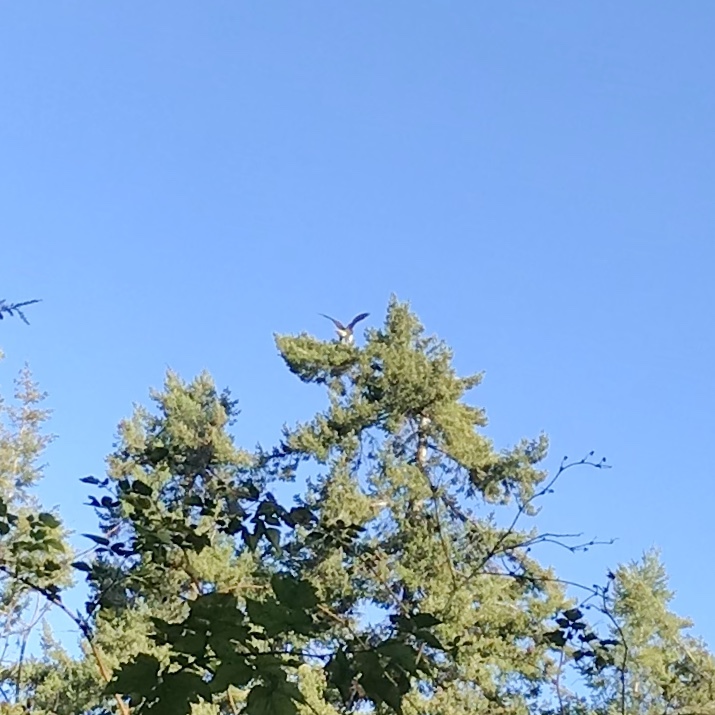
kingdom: Animalia
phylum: Chordata
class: Aves
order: Accipitriformes
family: Accipitridae
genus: Haliaeetus
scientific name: Haliaeetus leucocephalus
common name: Bald eagle
